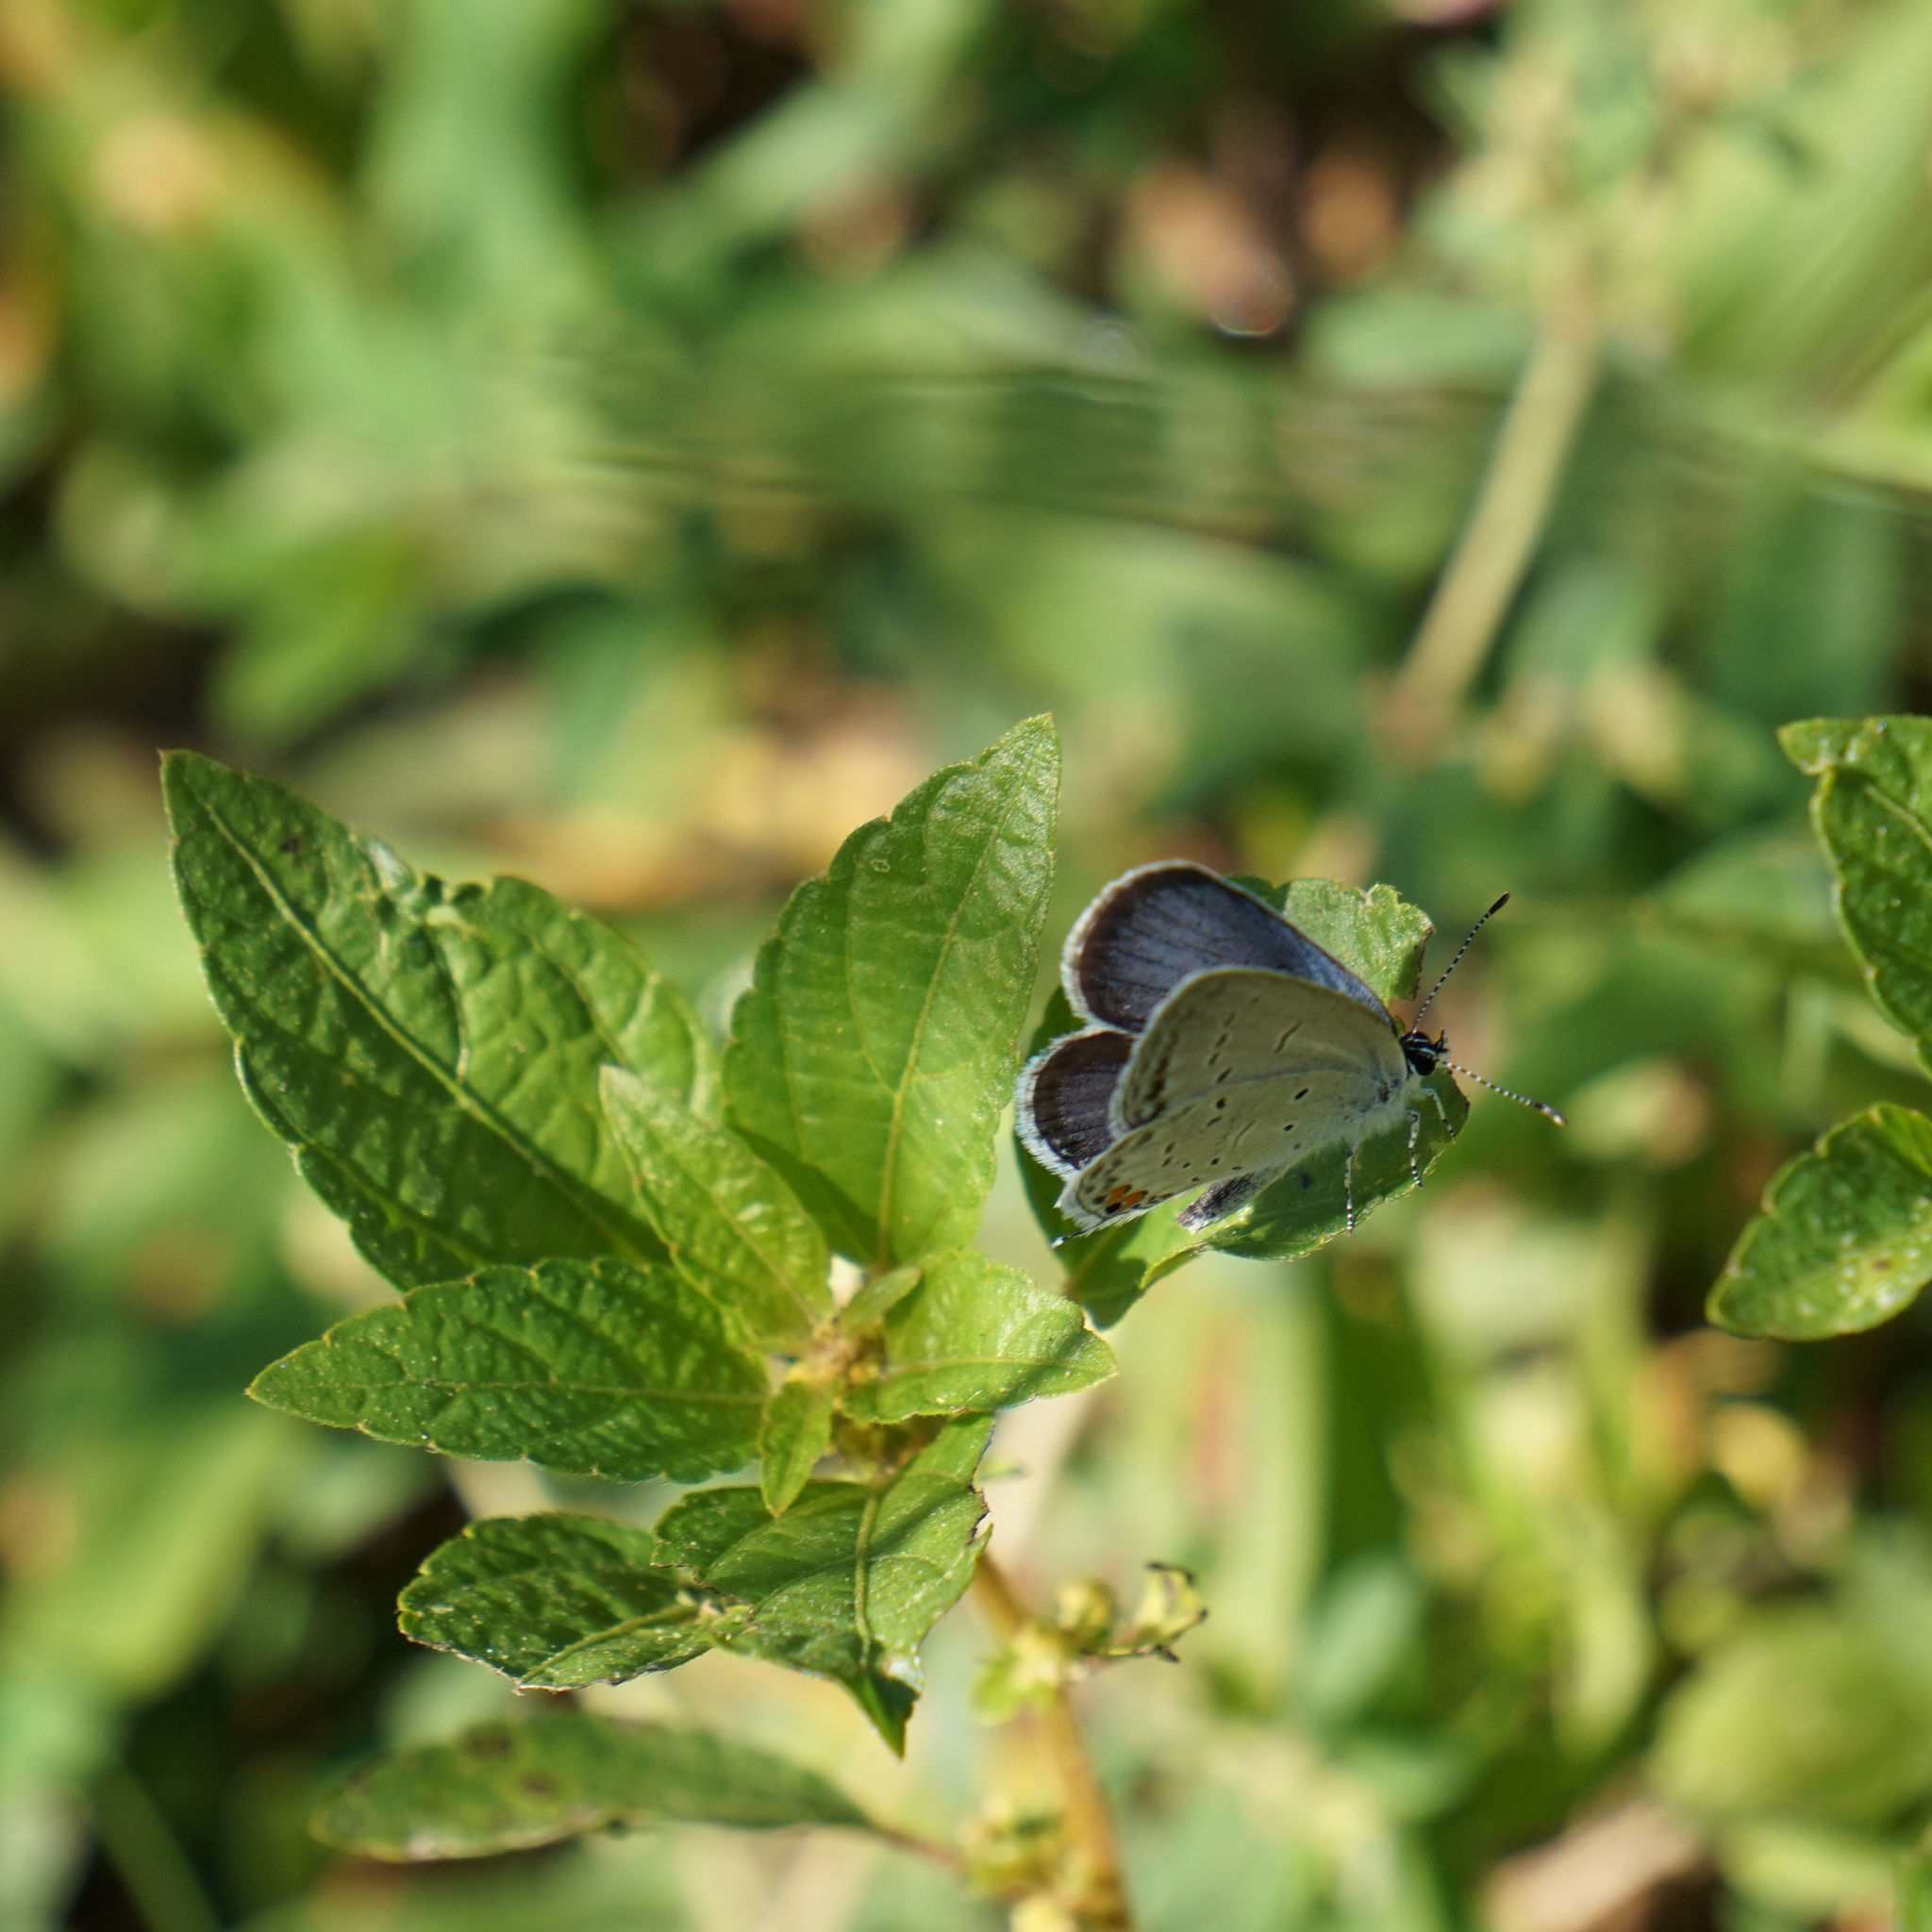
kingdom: Animalia
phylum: Arthropoda
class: Insecta
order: Lepidoptera
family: Lycaenidae
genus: Elkalyce
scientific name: Elkalyce comyntas
